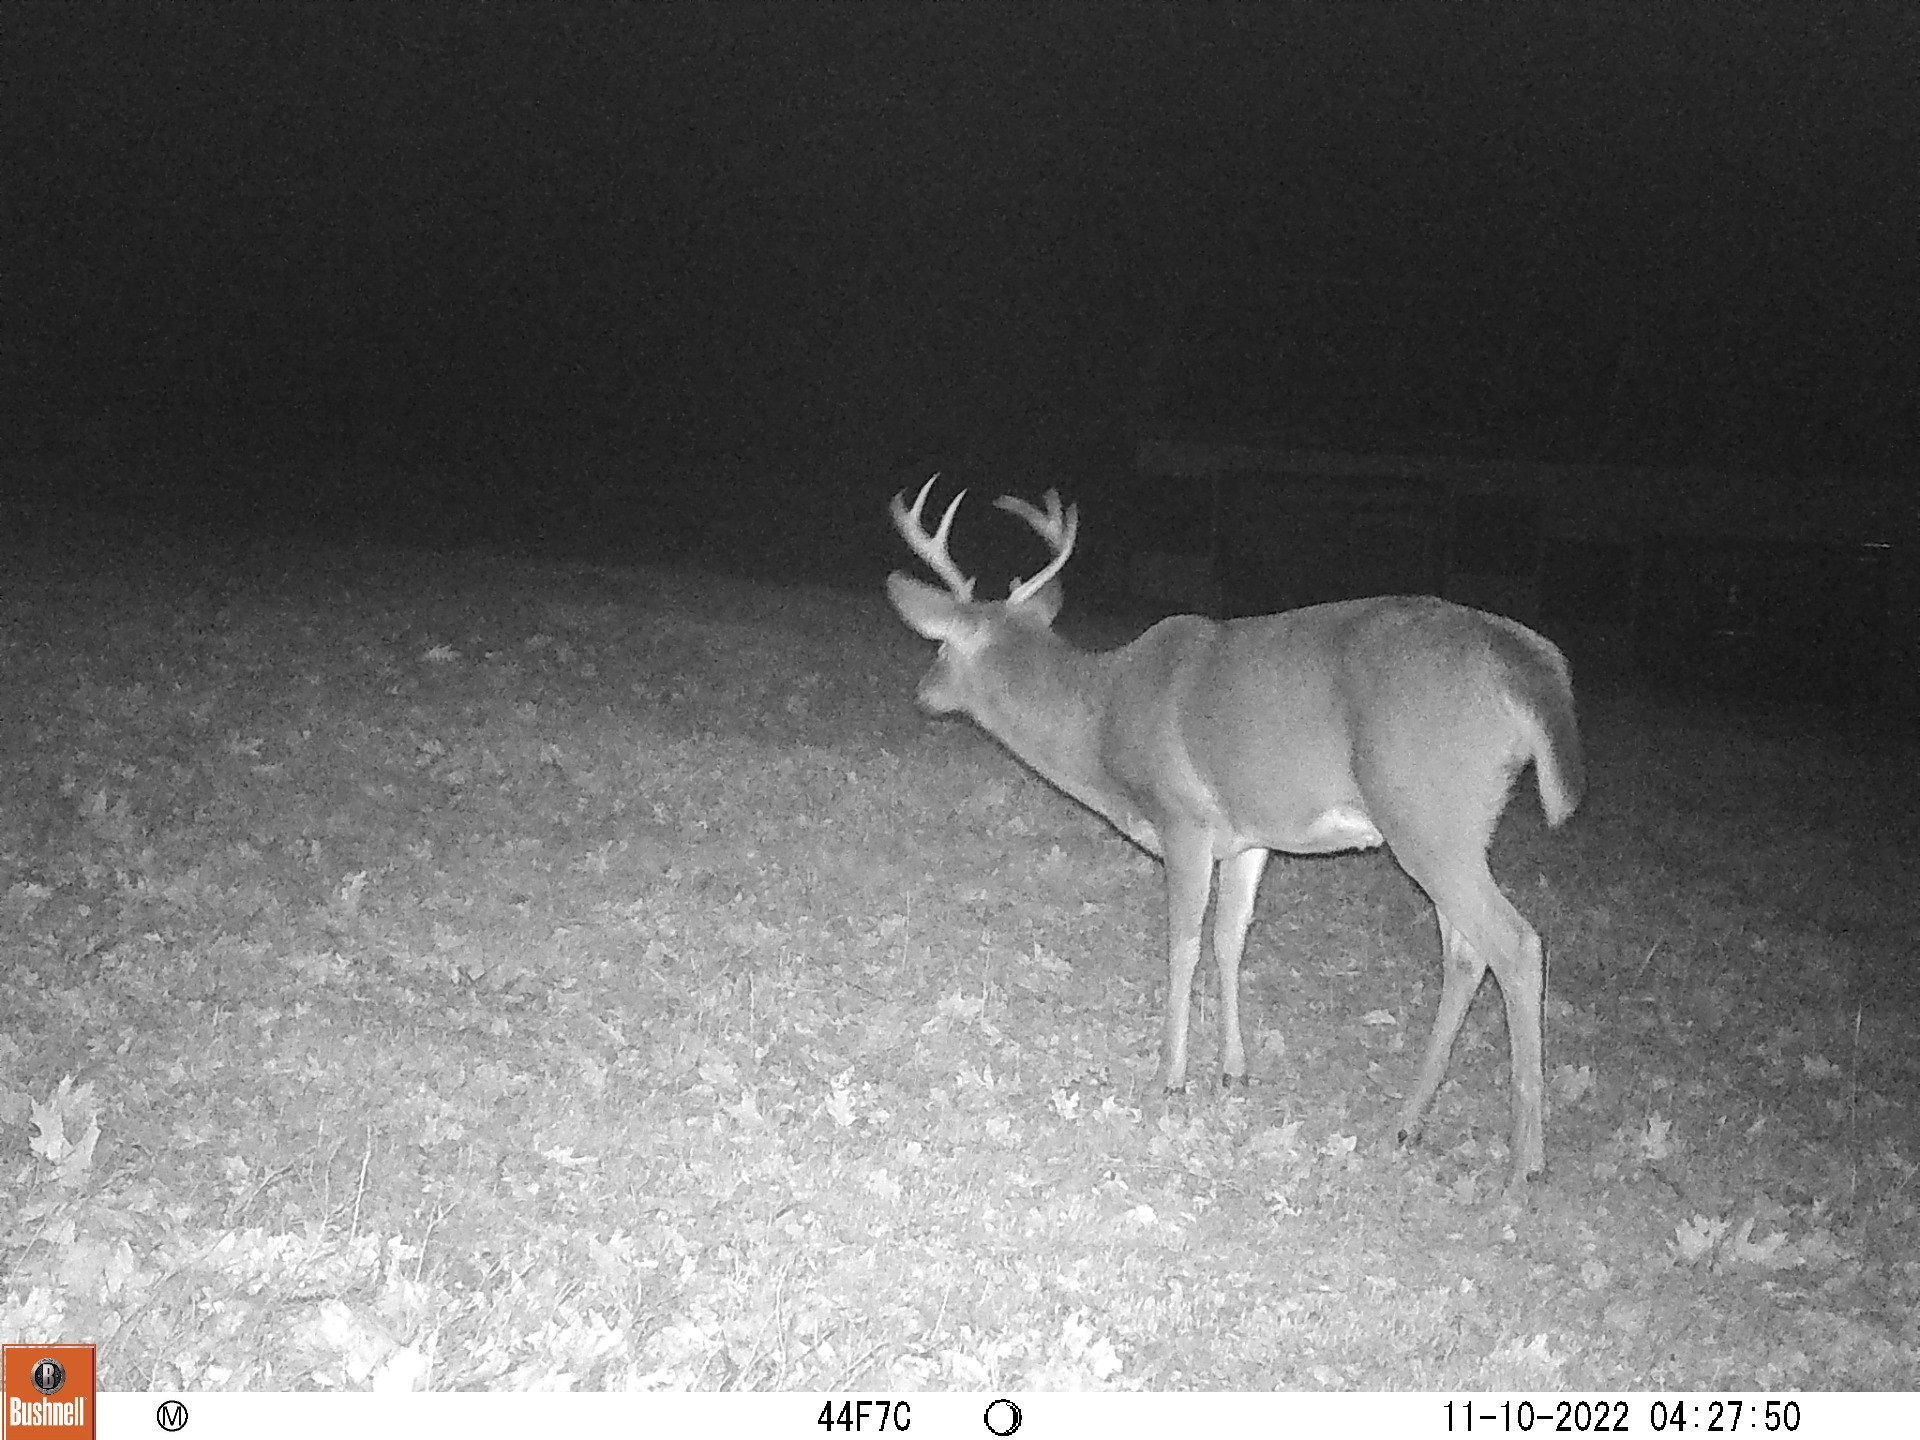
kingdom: Animalia
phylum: Chordata
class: Mammalia
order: Artiodactyla
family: Cervidae
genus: Odocoileus
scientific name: Odocoileus virginianus
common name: White-tailed deer
